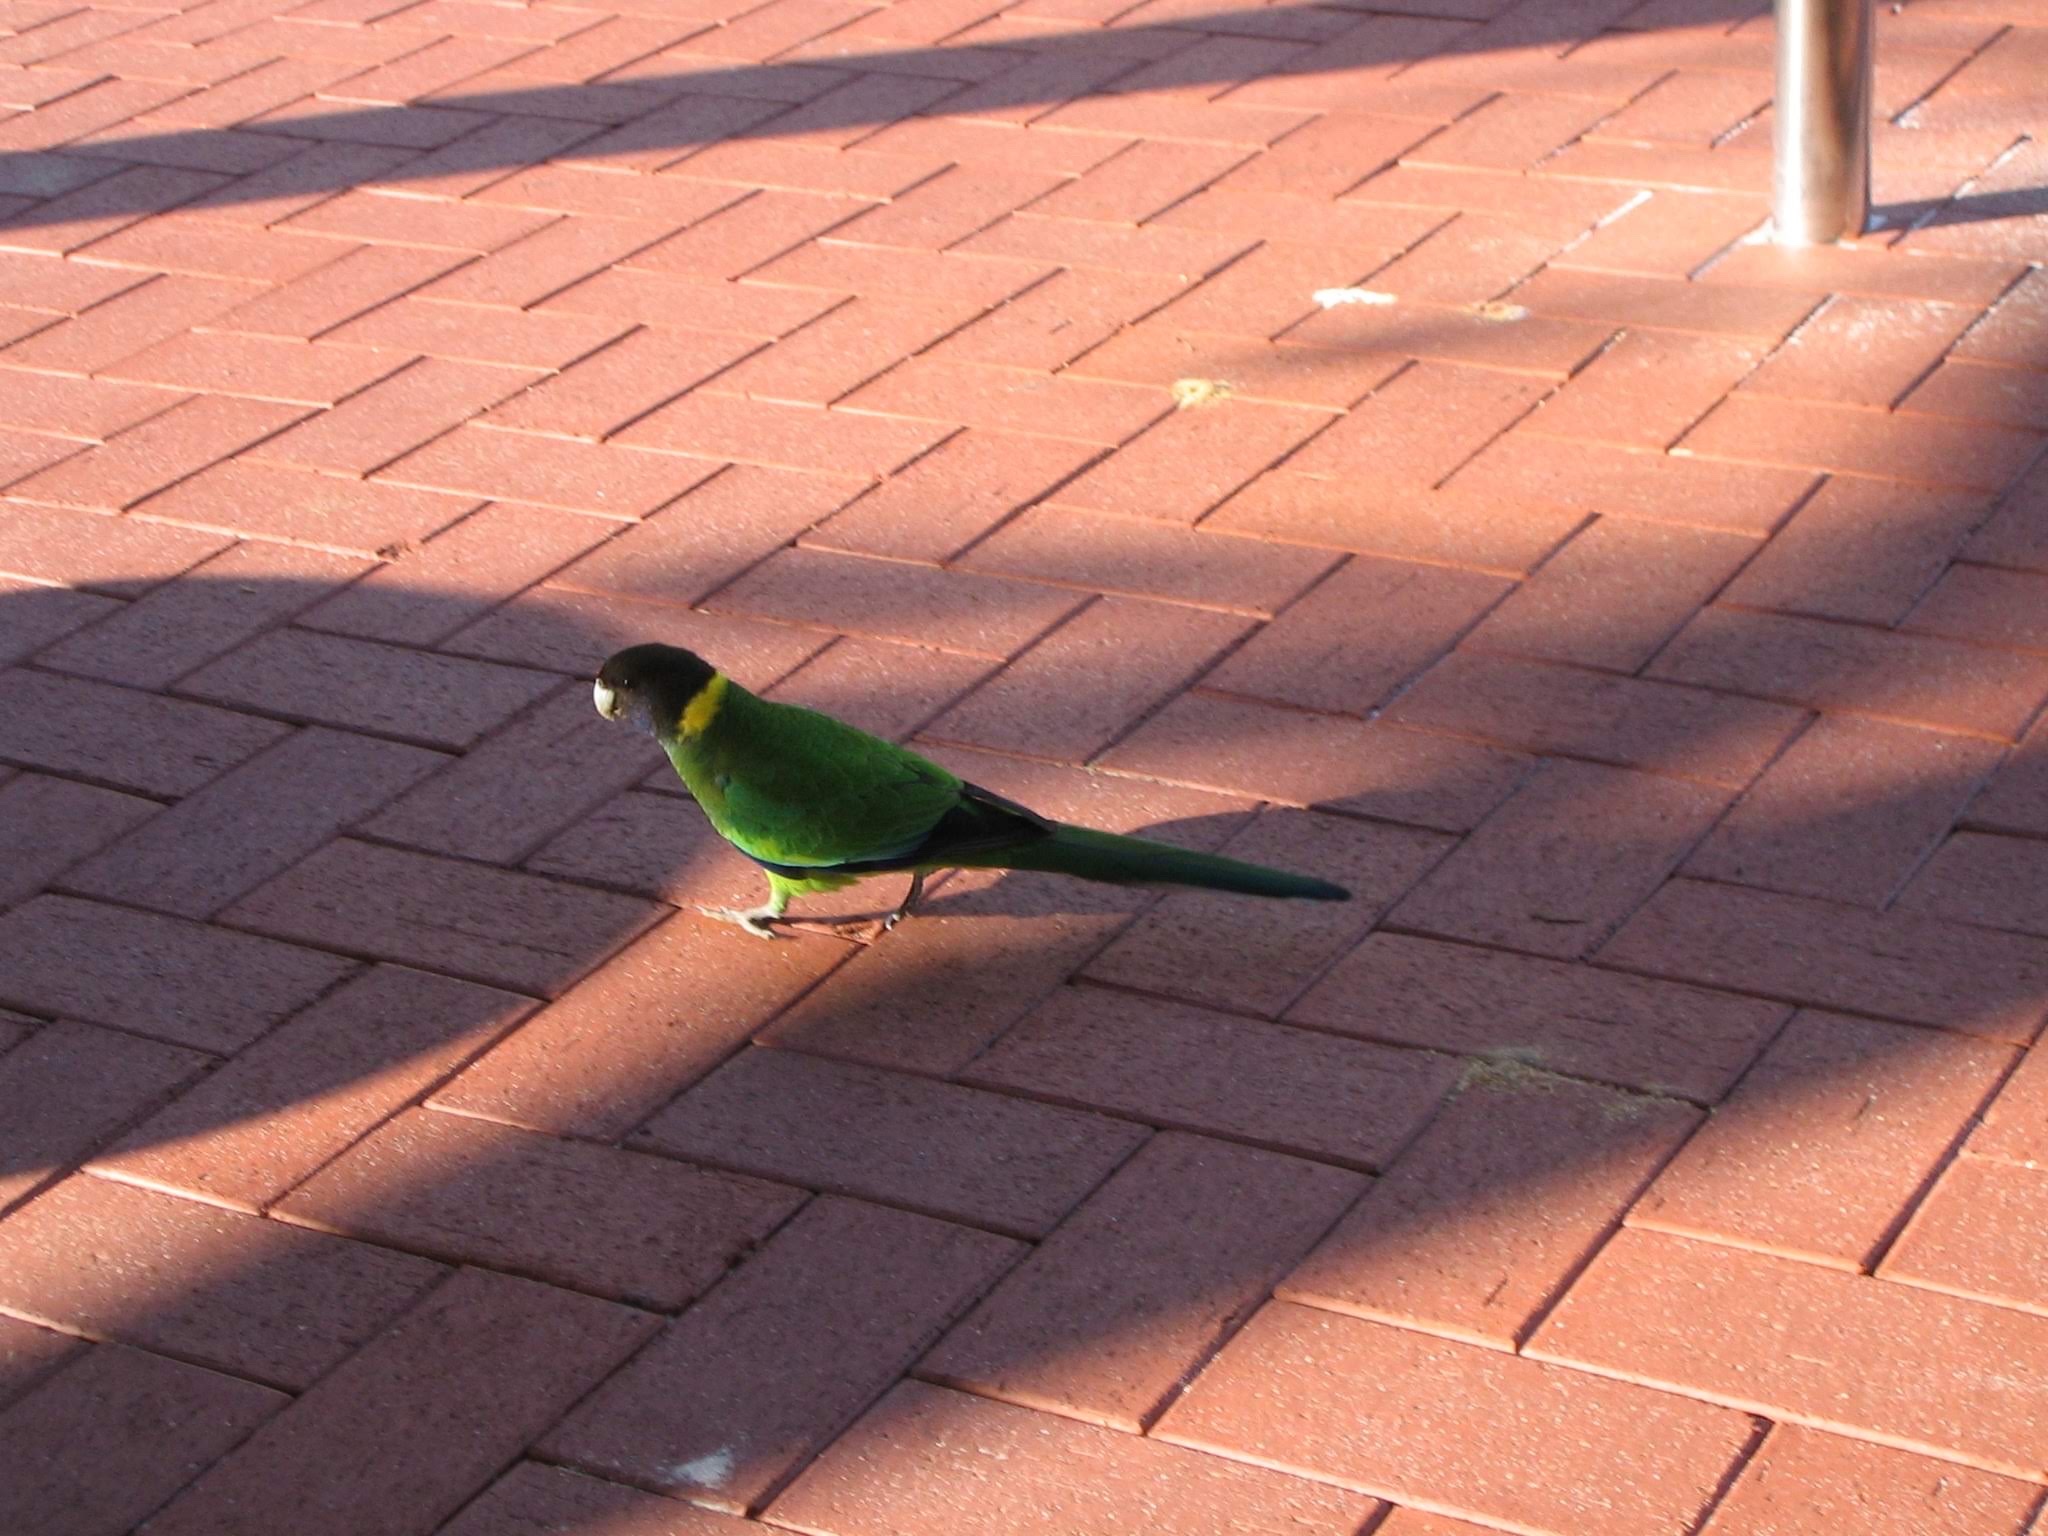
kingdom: Animalia
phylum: Chordata
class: Aves
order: Psittaciformes
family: Psittacidae
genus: Barnardius
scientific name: Barnardius zonarius
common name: Australian ringneck
